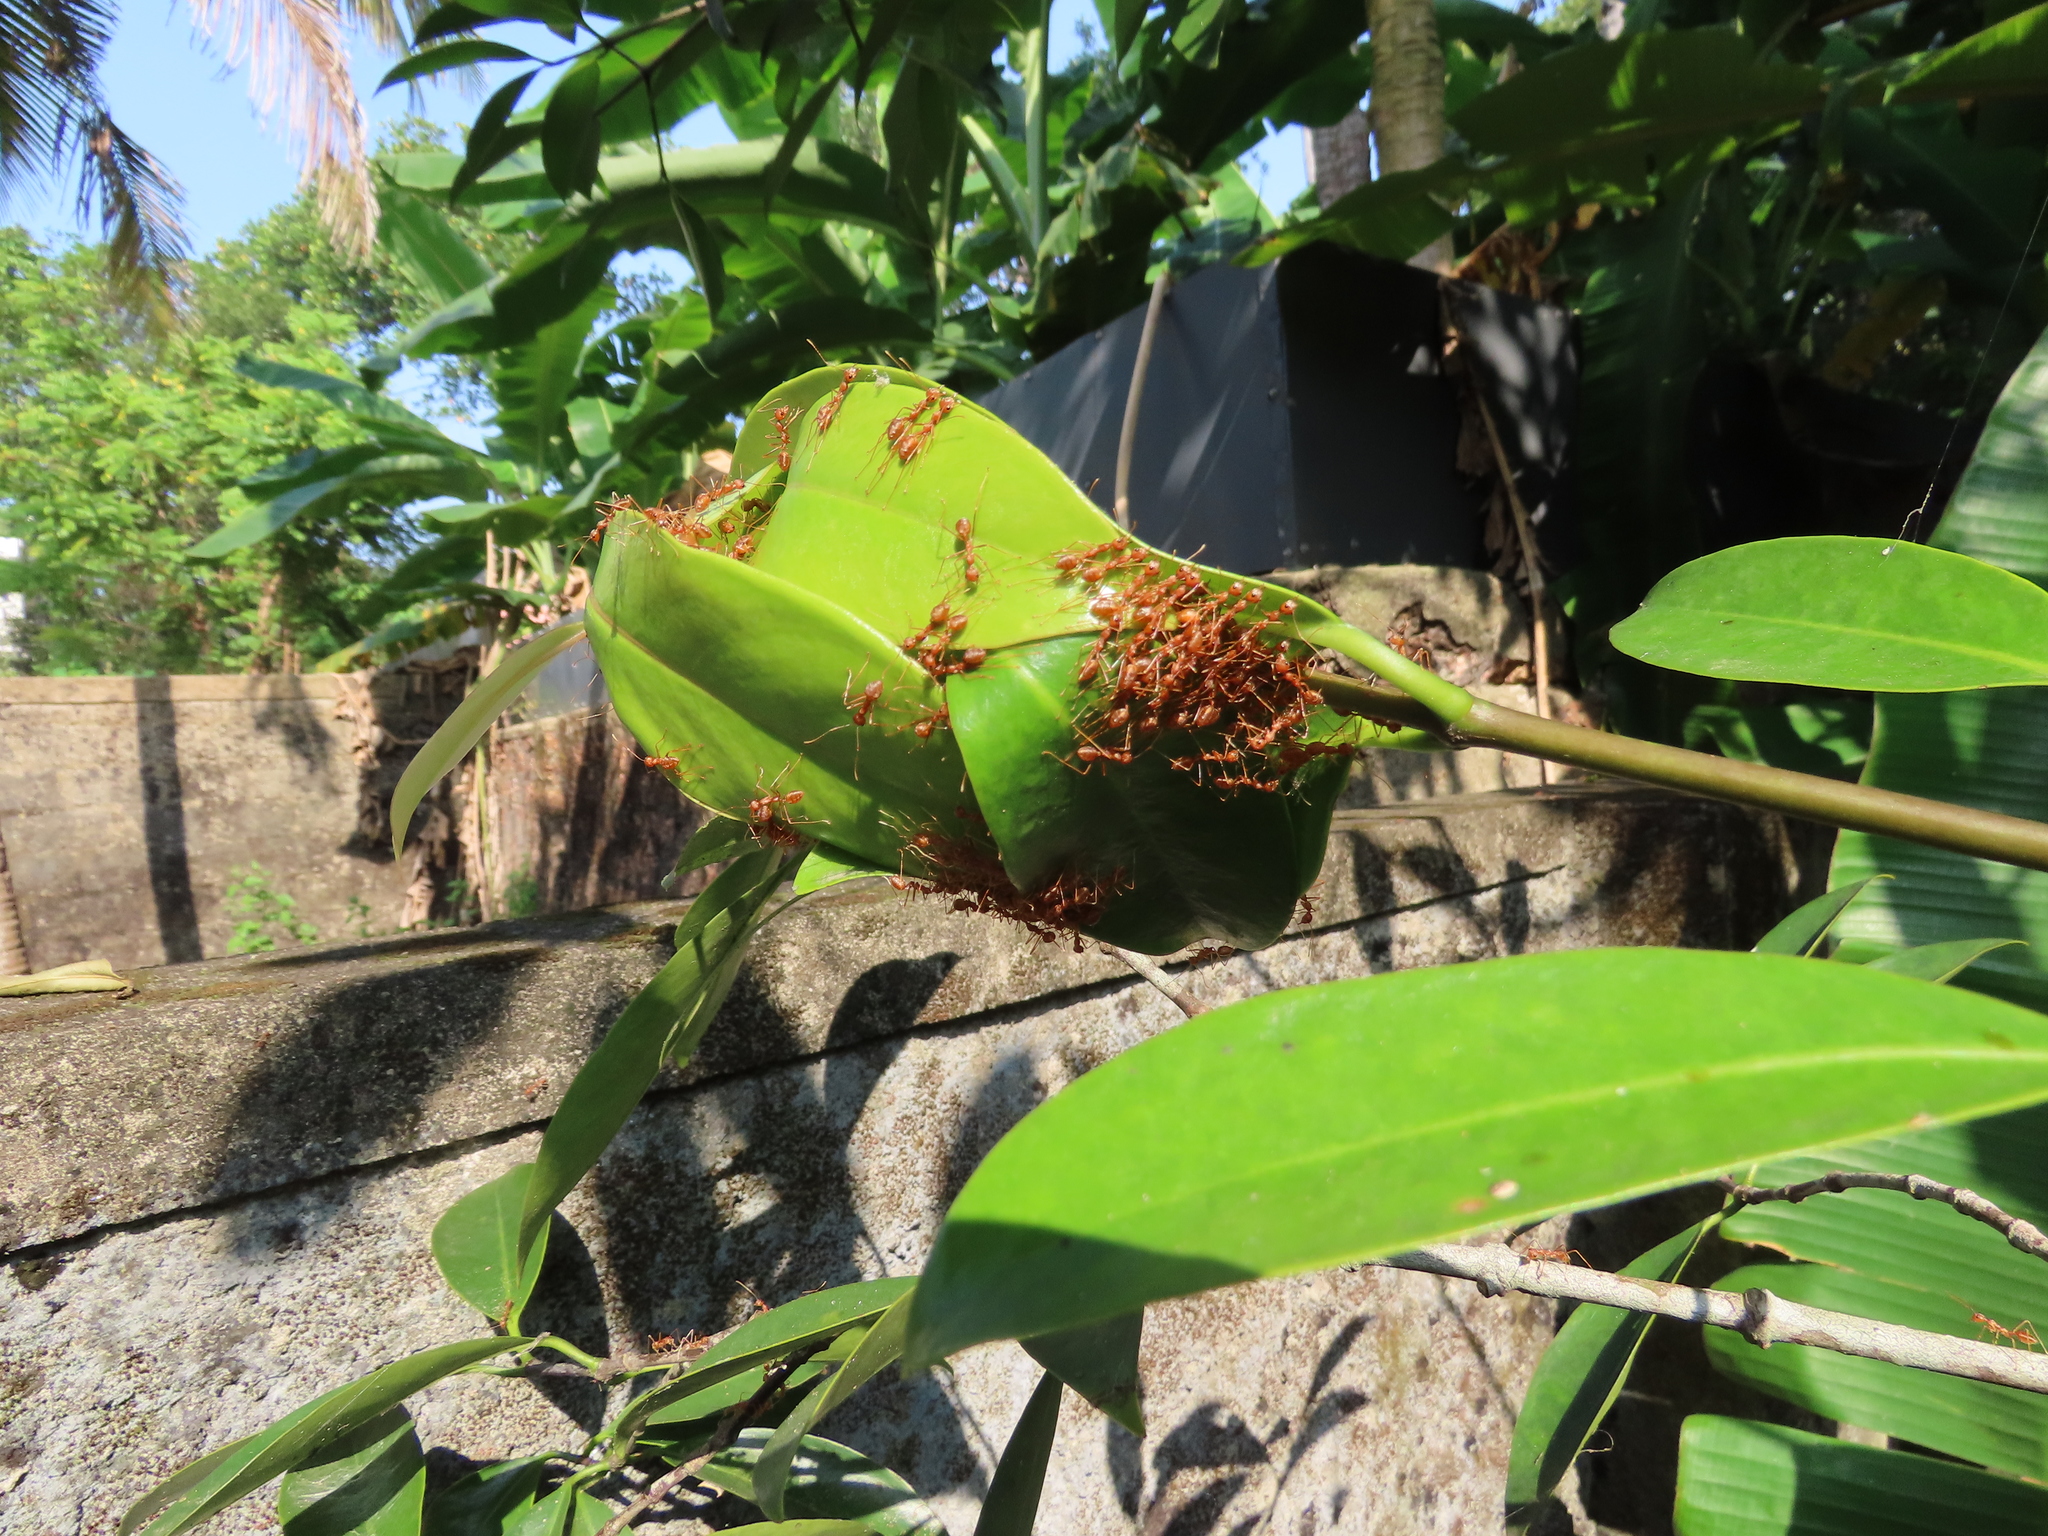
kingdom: Animalia
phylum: Arthropoda
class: Insecta
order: Hymenoptera
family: Formicidae
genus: Oecophylla
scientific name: Oecophylla smaragdina
